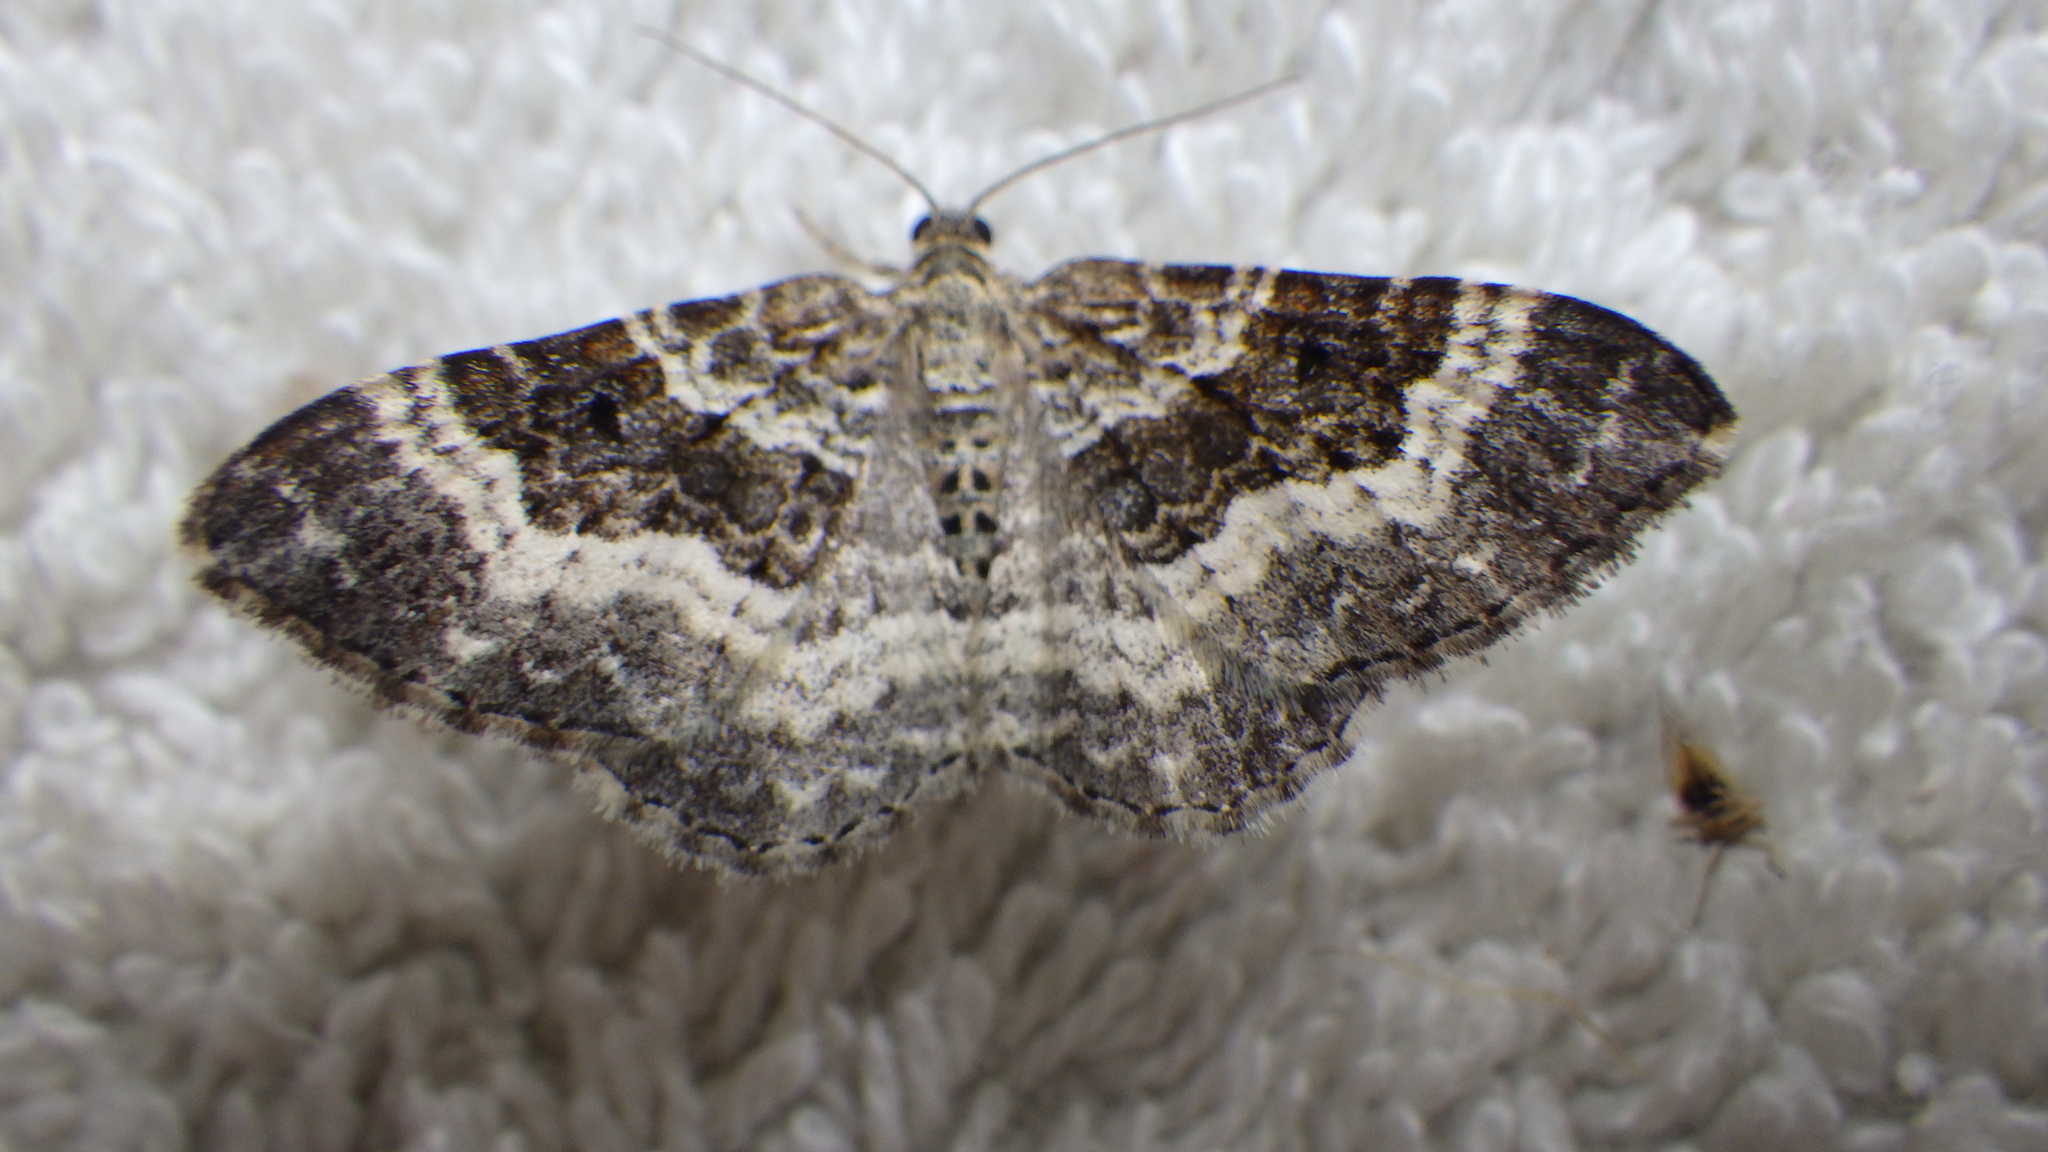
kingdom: Animalia
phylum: Arthropoda
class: Insecta
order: Lepidoptera
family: Geometridae
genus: Epirrhoe
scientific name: Epirrhoe alternata
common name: Common carpet
